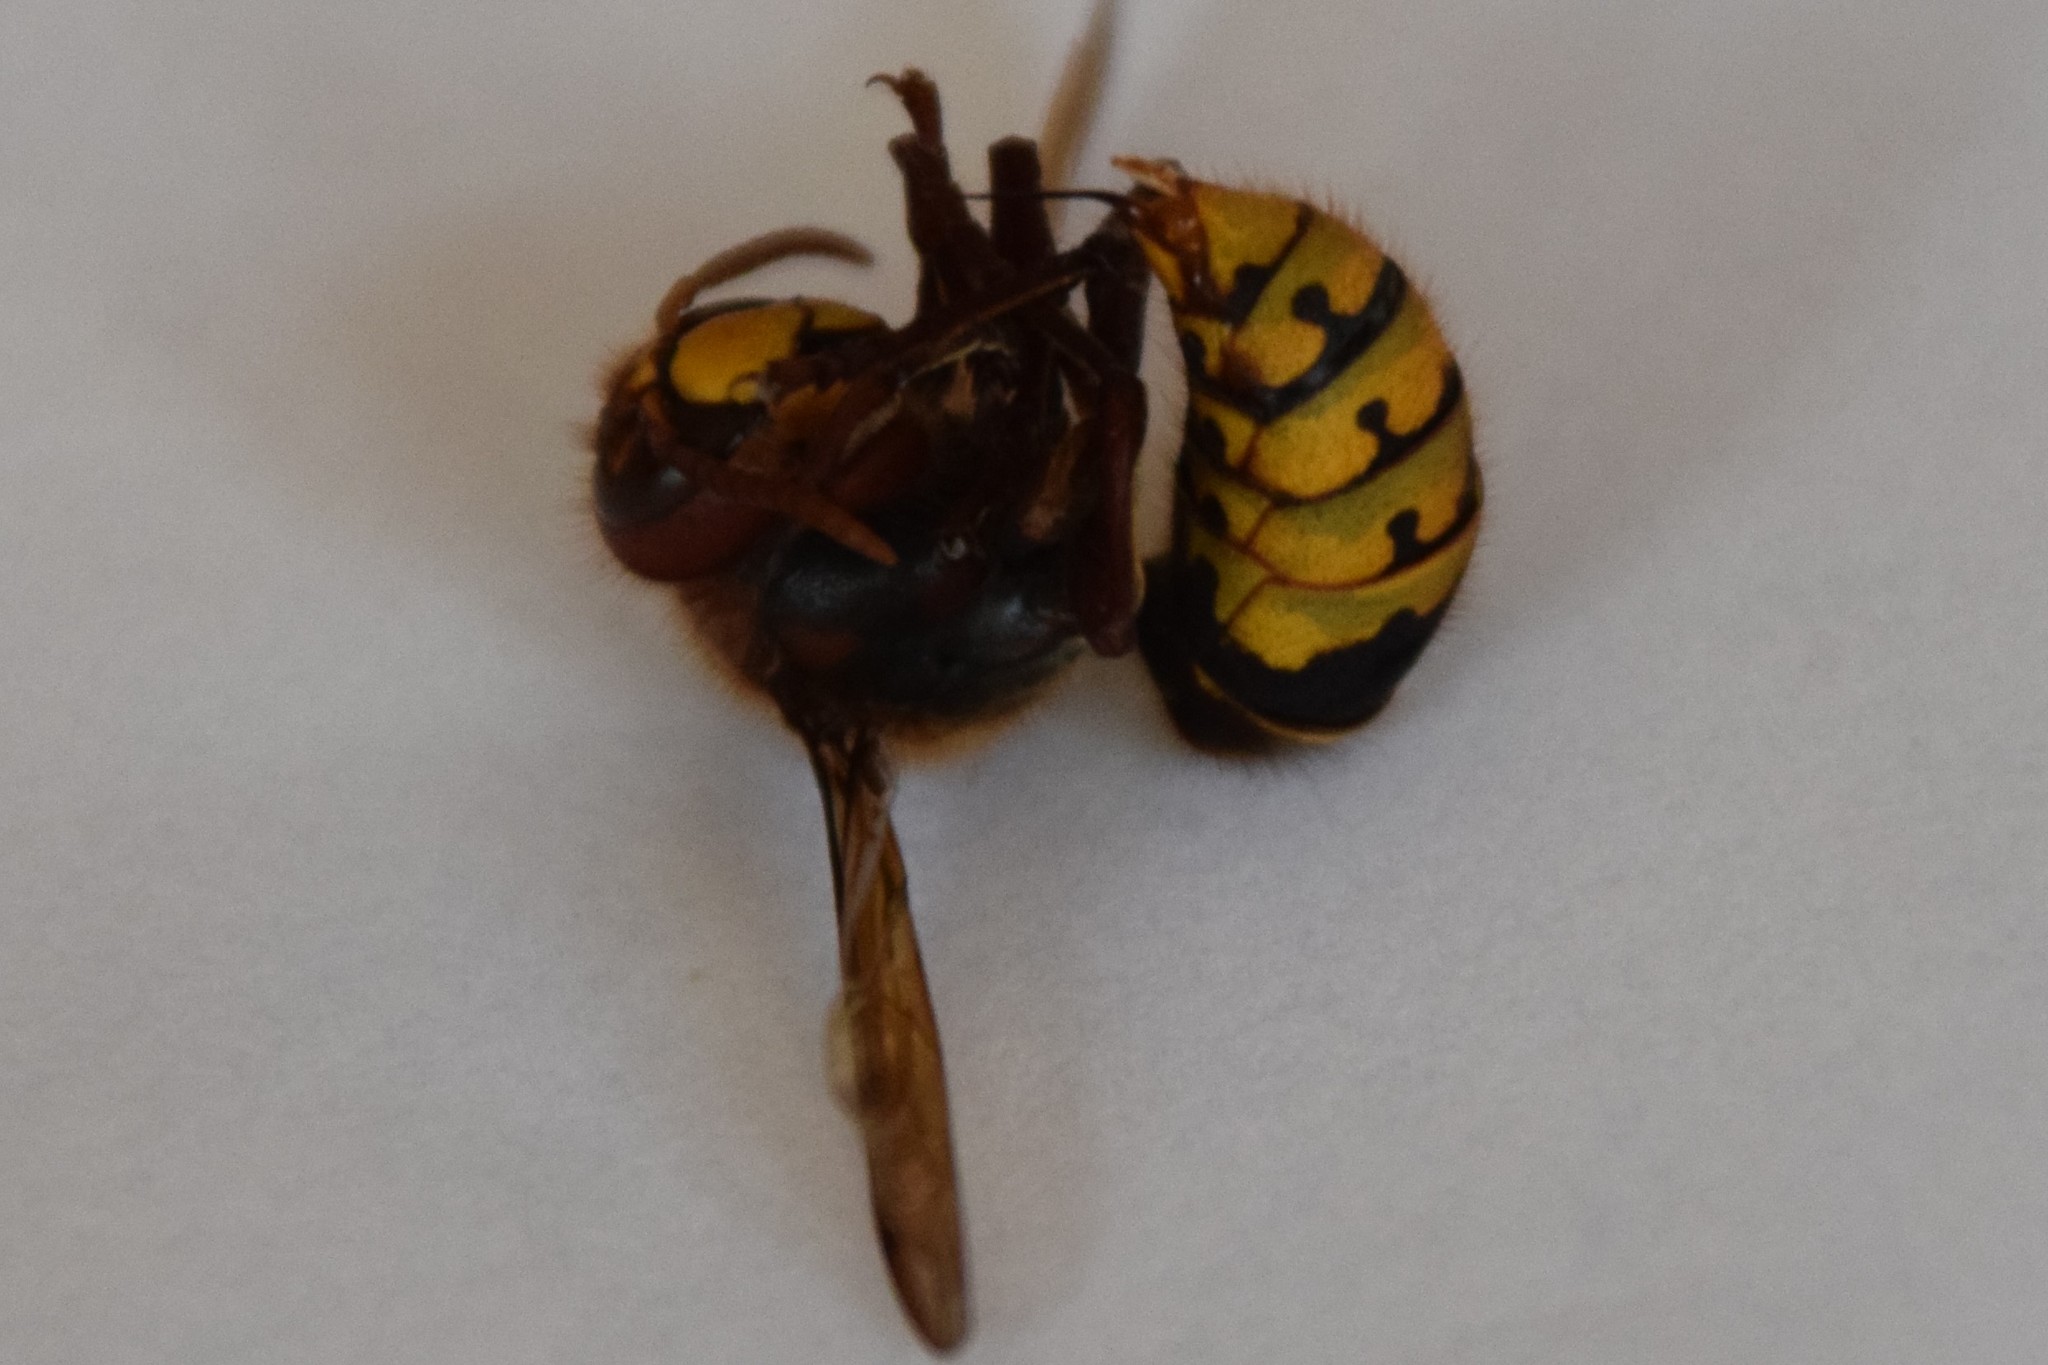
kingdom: Animalia
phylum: Arthropoda
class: Insecta
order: Hymenoptera
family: Vespidae
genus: Vespa
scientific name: Vespa crabro
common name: Hornet
